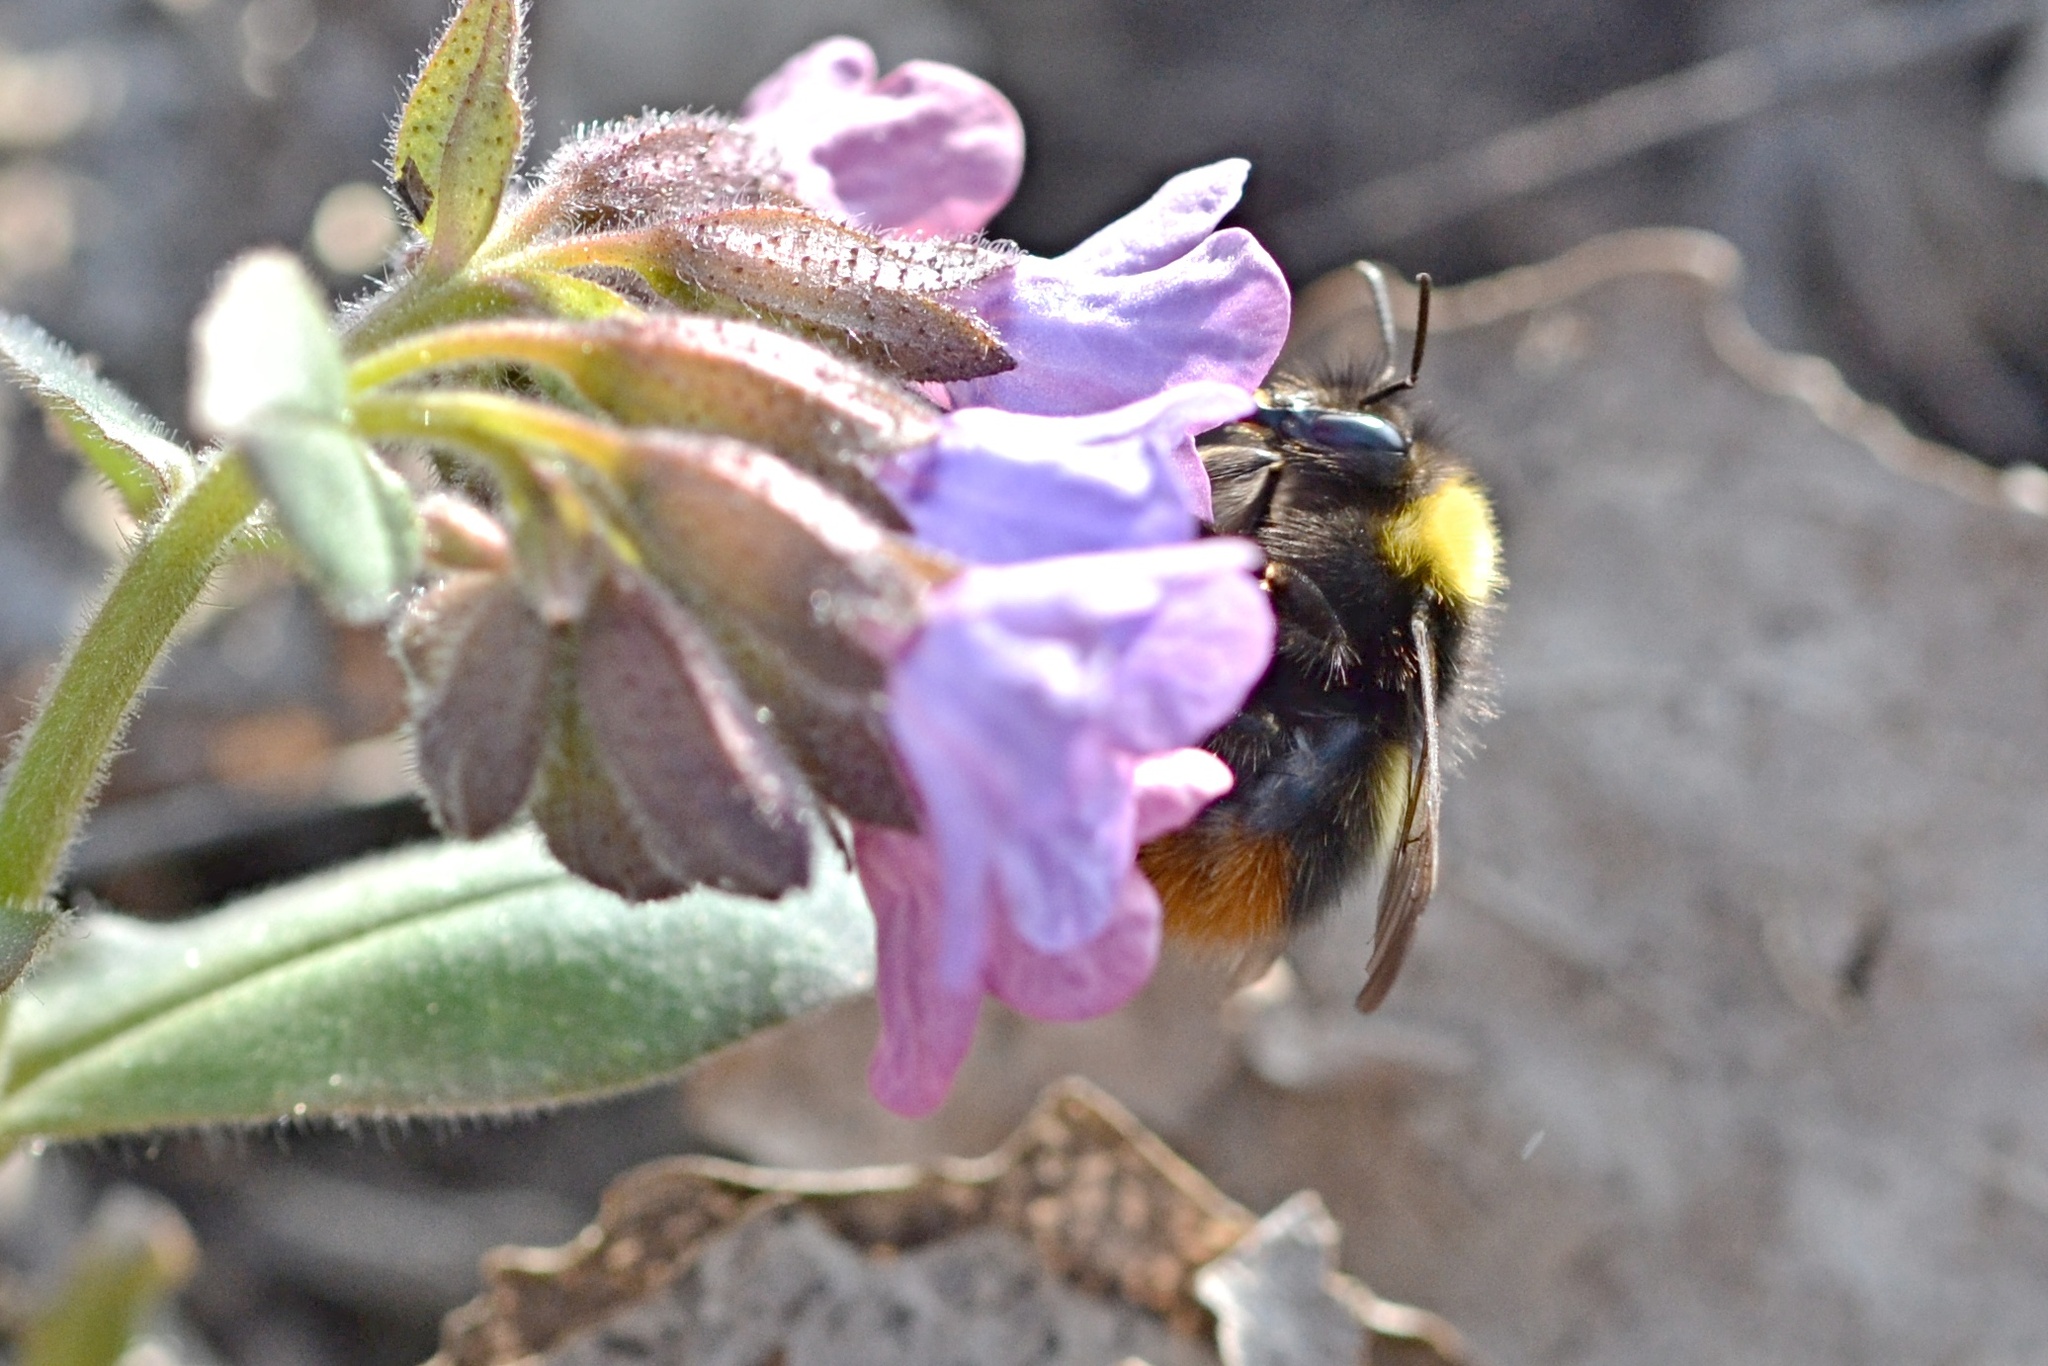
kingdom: Animalia
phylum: Arthropoda
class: Insecta
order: Hymenoptera
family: Apidae
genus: Bombus
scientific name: Bombus pratorum
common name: Early humble-bee
